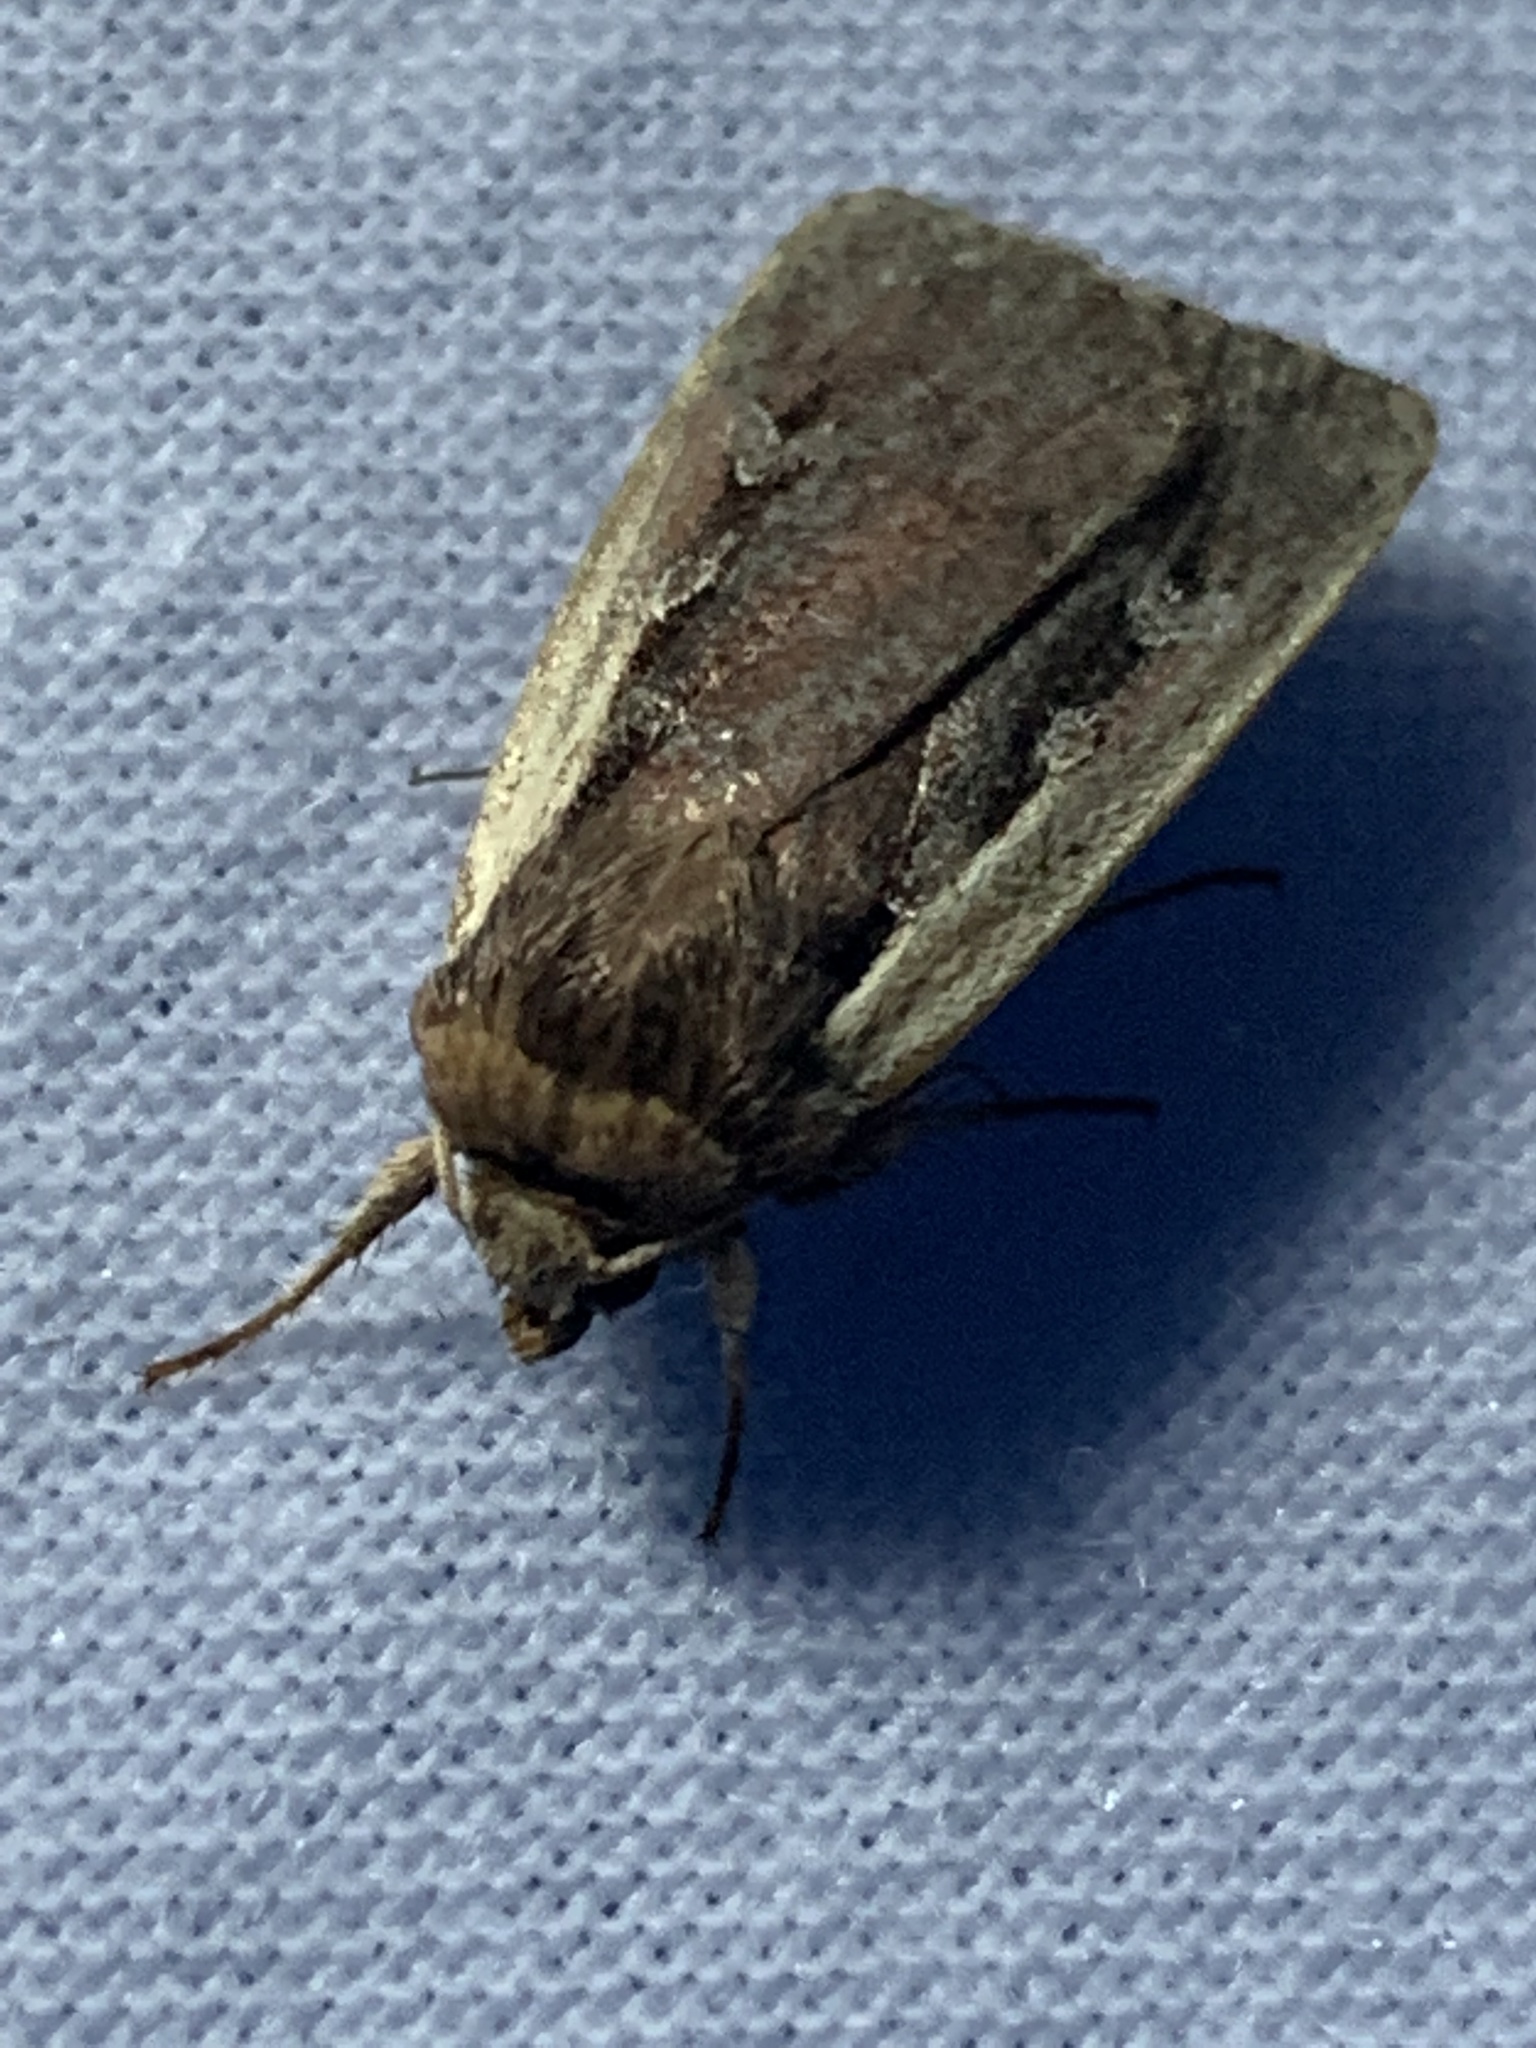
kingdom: Animalia
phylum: Arthropoda
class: Insecta
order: Lepidoptera
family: Noctuidae
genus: Ochropleura
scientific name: Ochropleura plecta
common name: Flame shoulder
